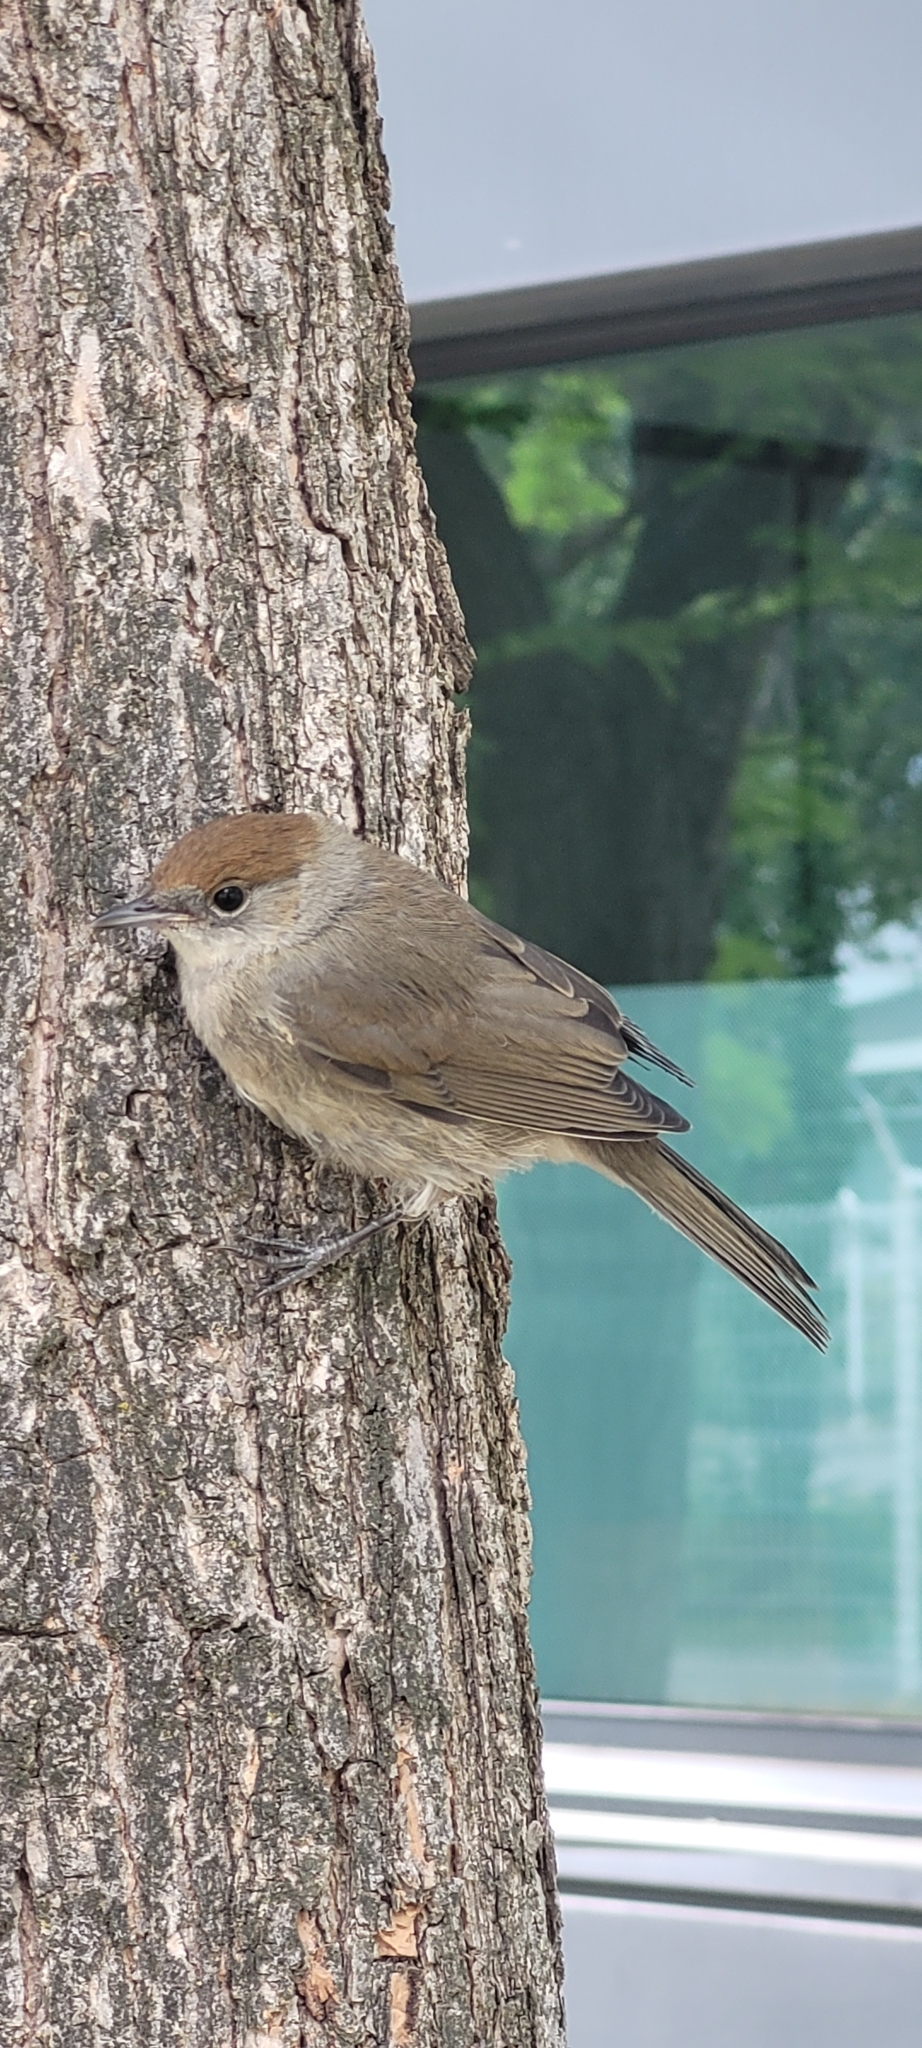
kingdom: Animalia
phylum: Chordata
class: Aves
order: Passeriformes
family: Sylviidae
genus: Sylvia
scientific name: Sylvia atricapilla
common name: Eurasian blackcap
